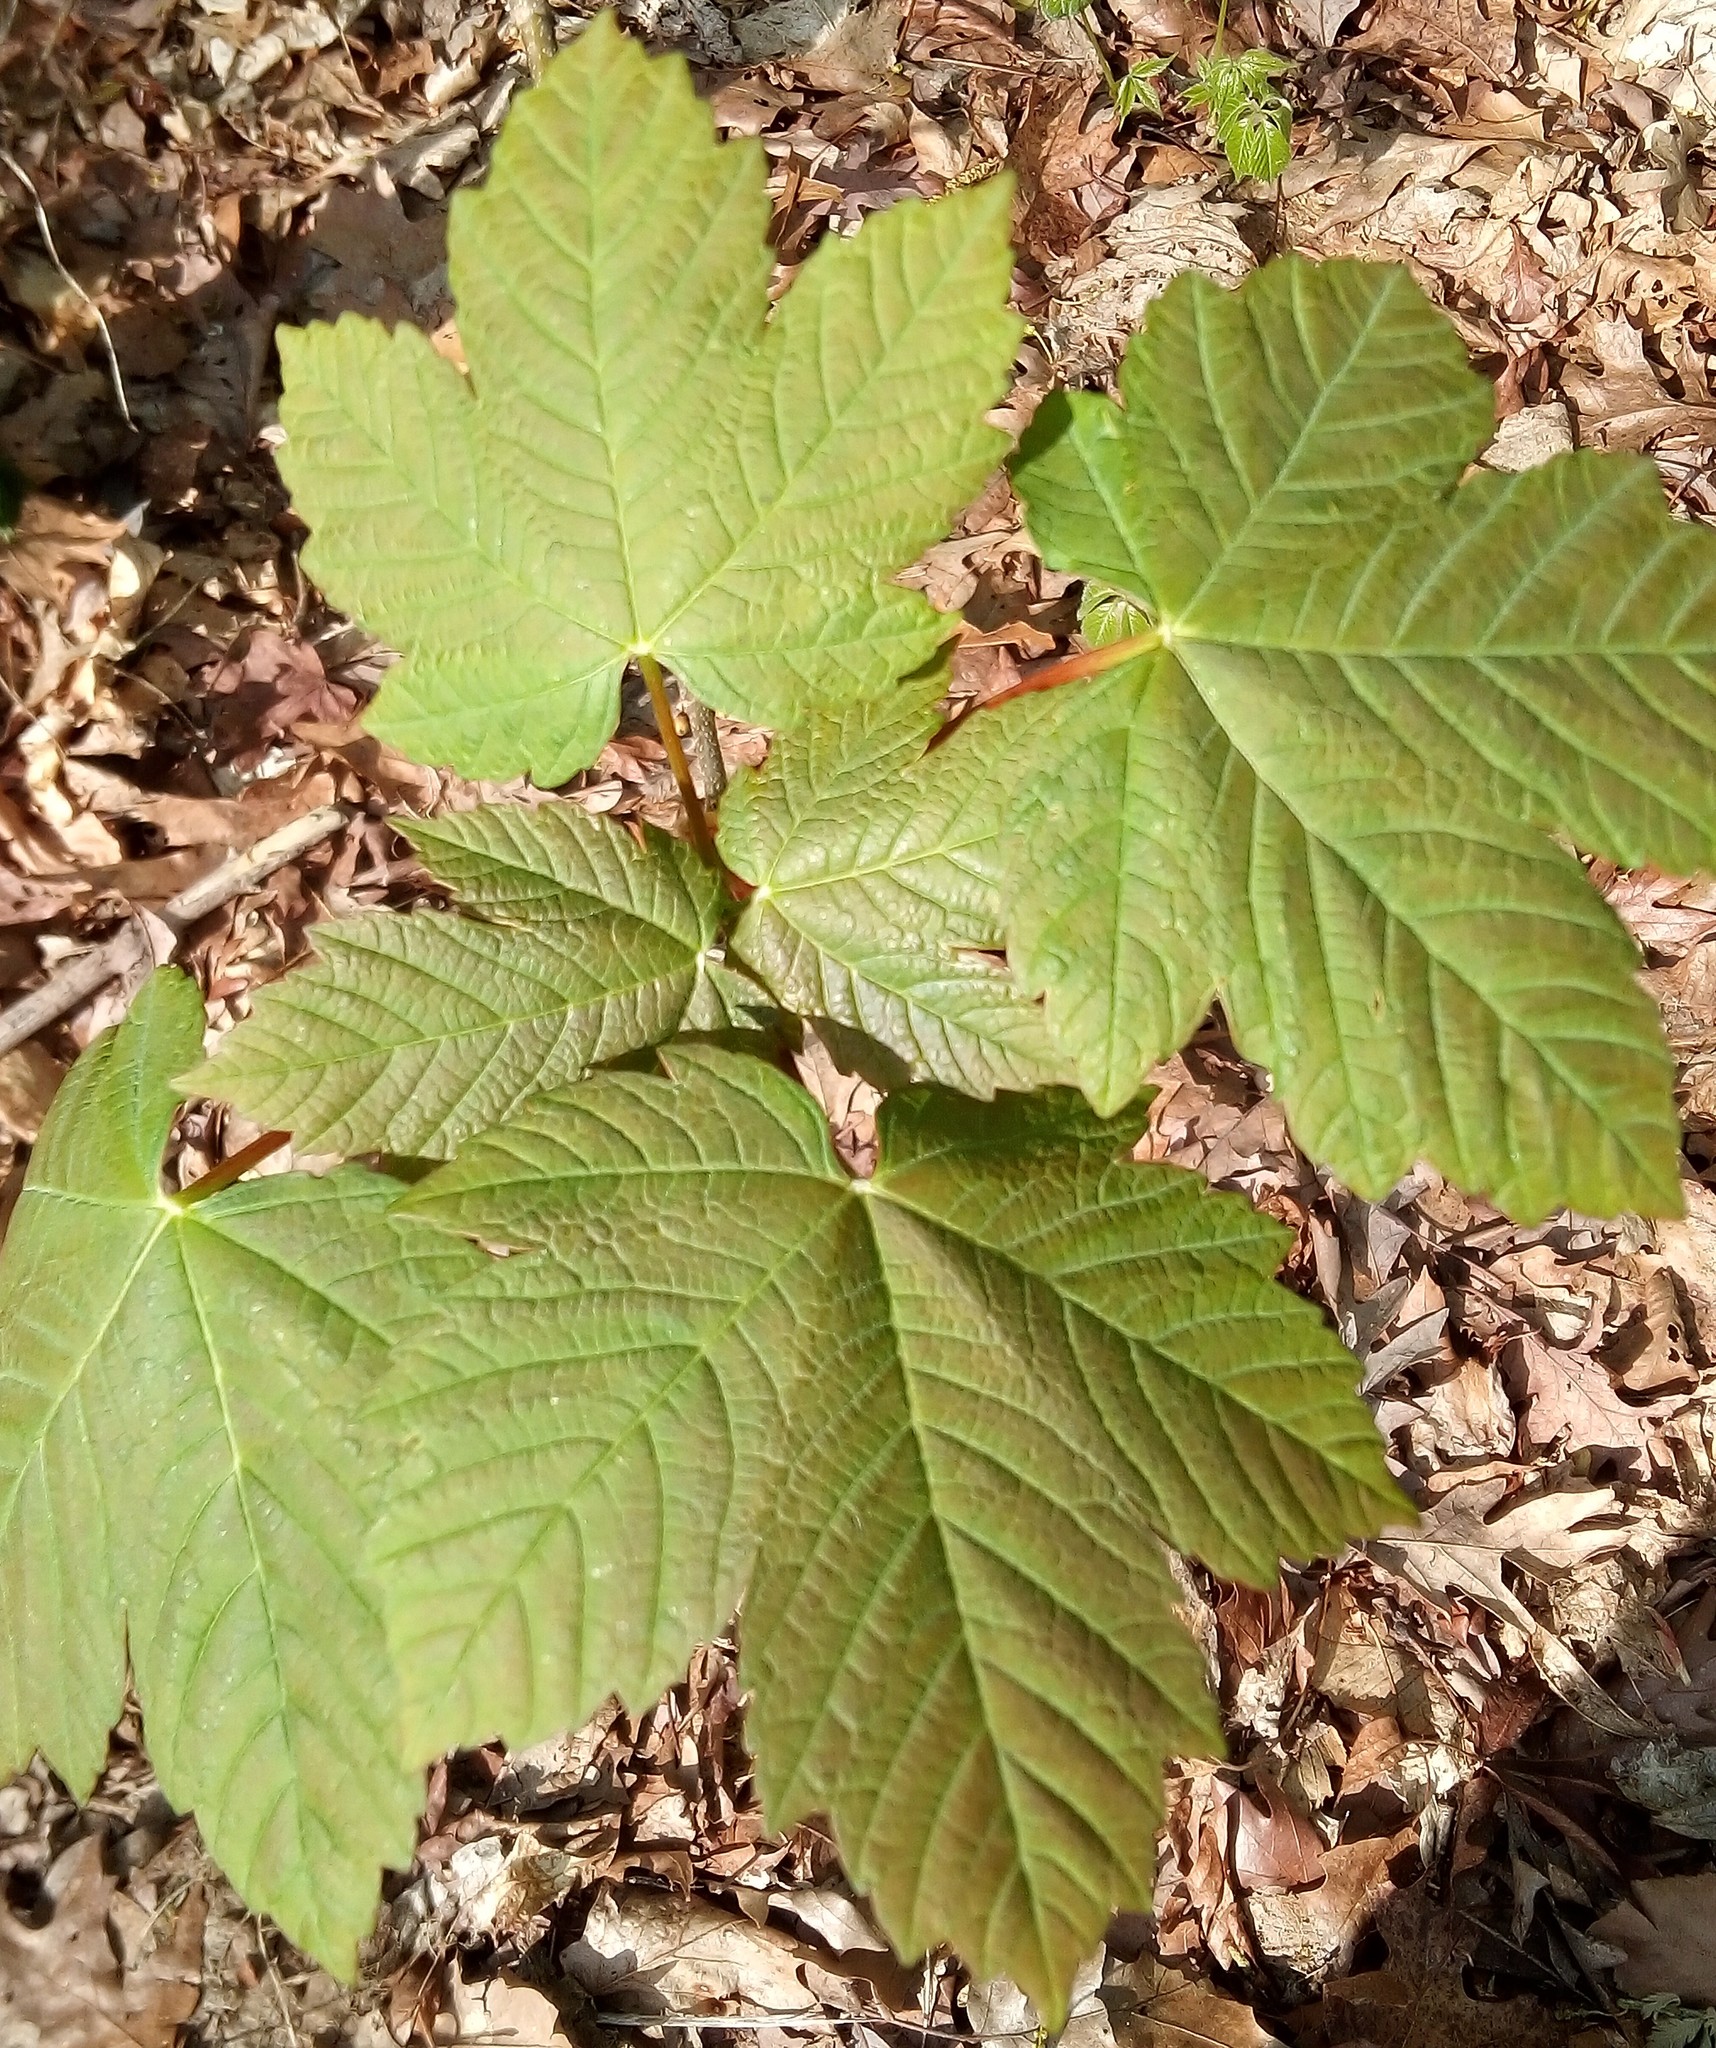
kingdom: Plantae
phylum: Tracheophyta
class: Magnoliopsida
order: Sapindales
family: Sapindaceae
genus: Acer
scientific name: Acer pseudoplatanus
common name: Sycamore
